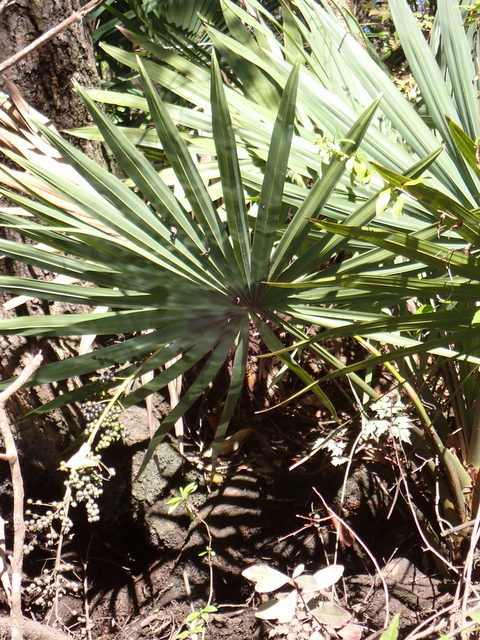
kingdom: Plantae
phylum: Tracheophyta
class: Liliopsida
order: Arecales
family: Arecaceae
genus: Sabal
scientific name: Sabal minor
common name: Dwarf palmetto
